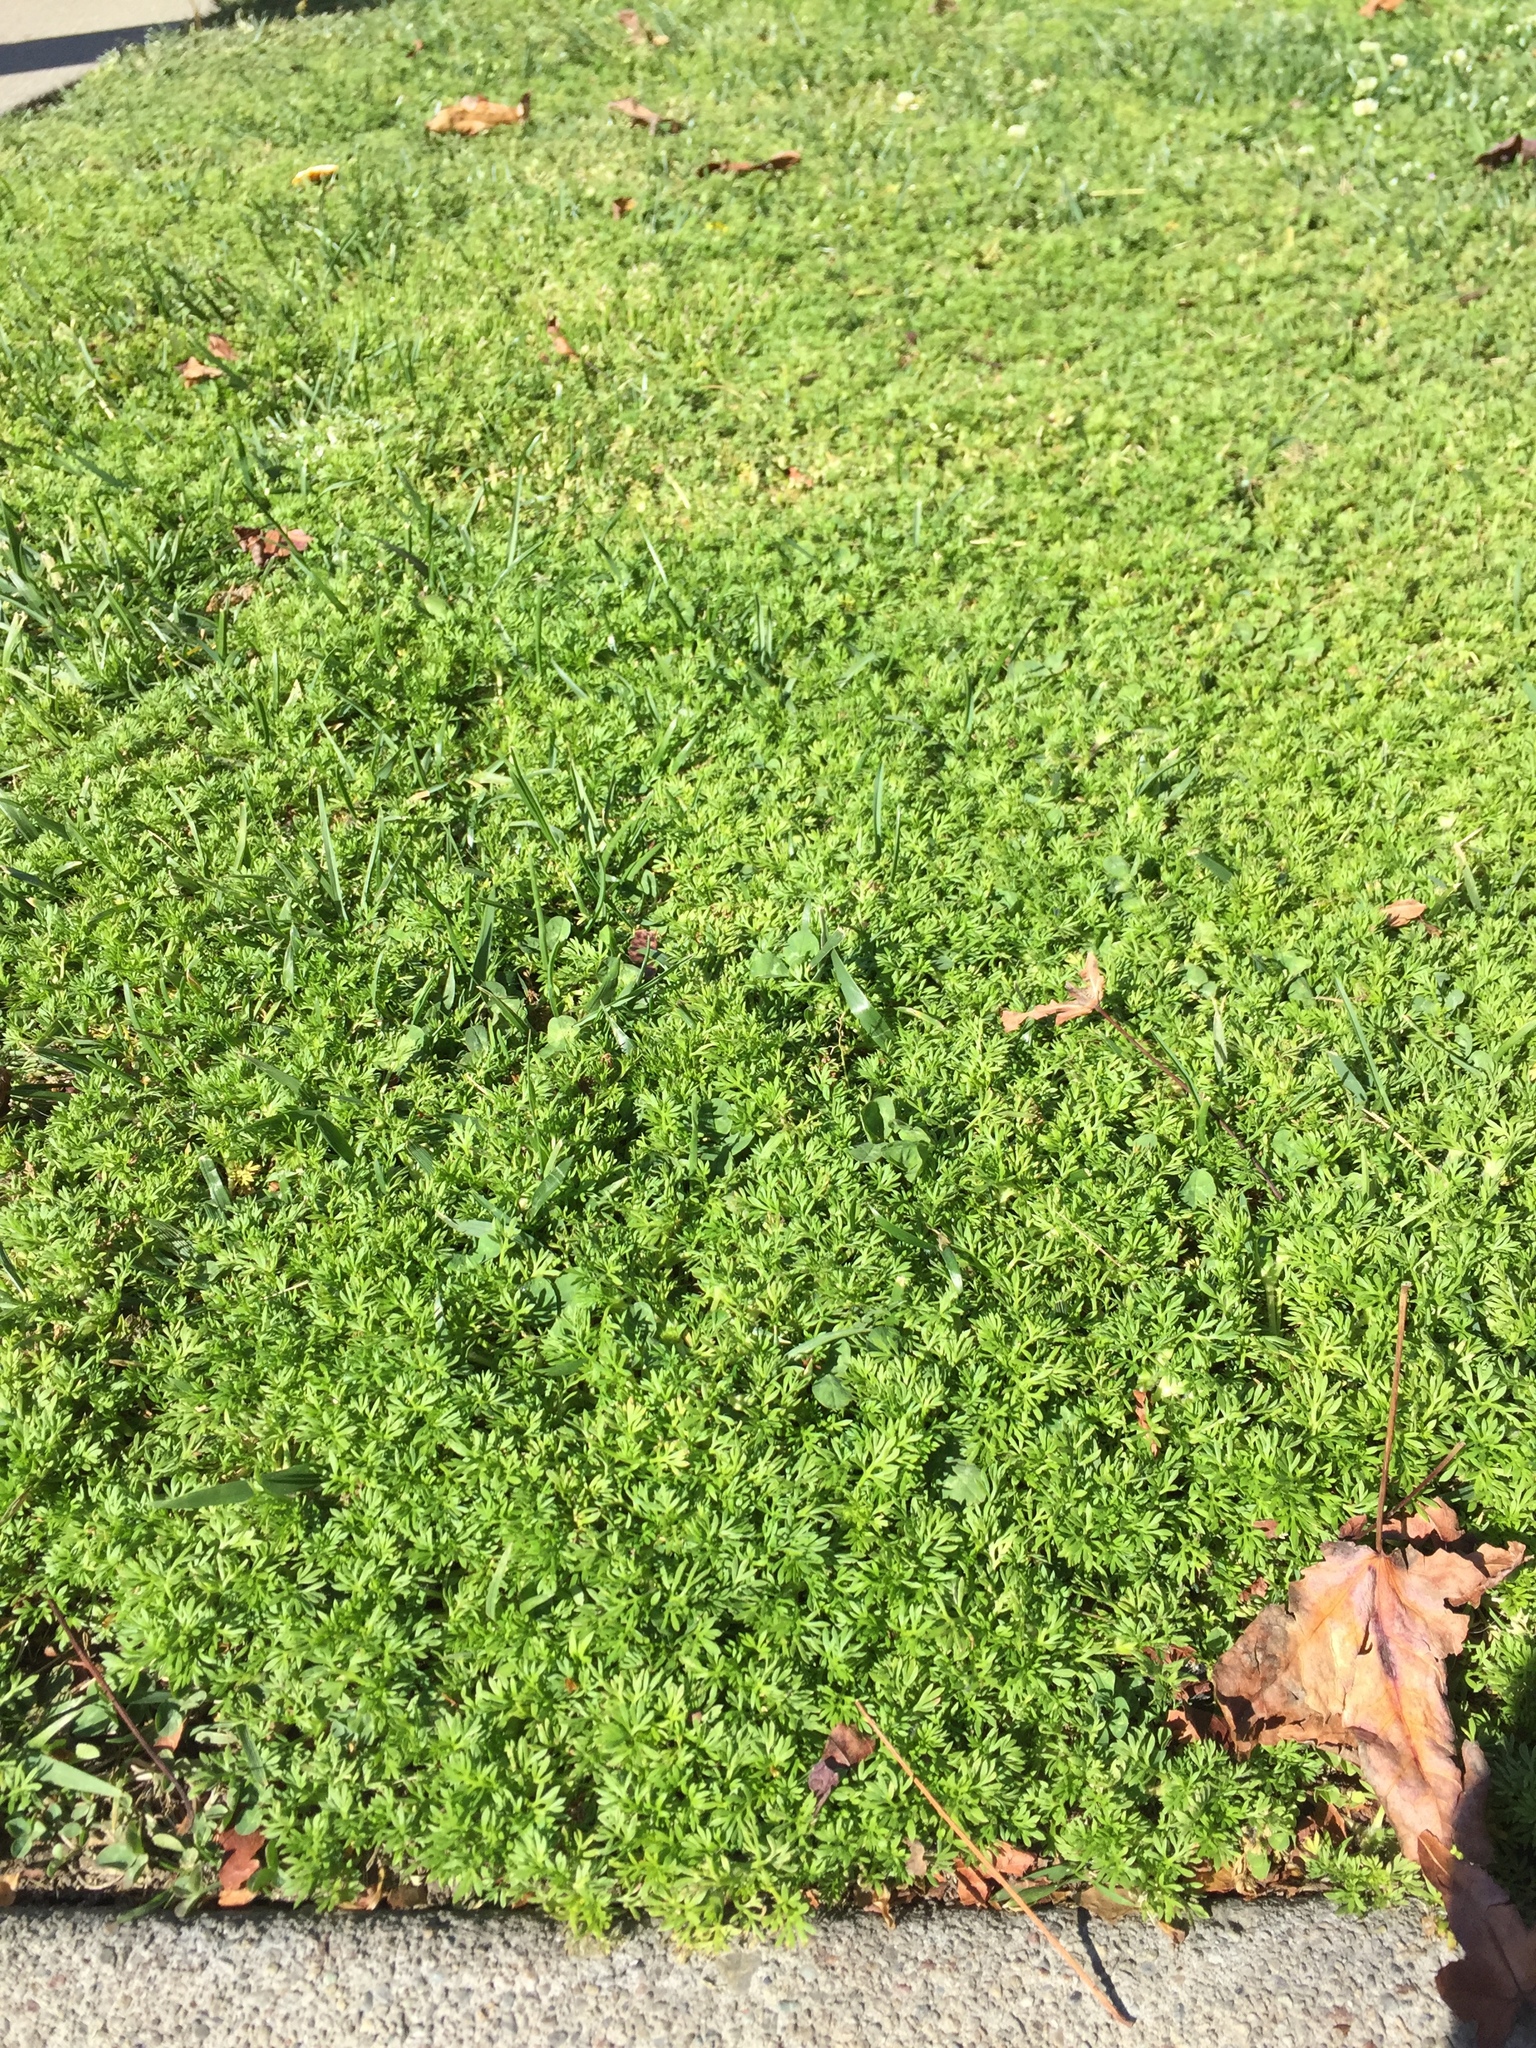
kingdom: Plantae
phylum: Tracheophyta
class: Magnoliopsida
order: Asterales
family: Asteraceae
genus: Soliva
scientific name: Soliva sessilis
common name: Field burrweed
